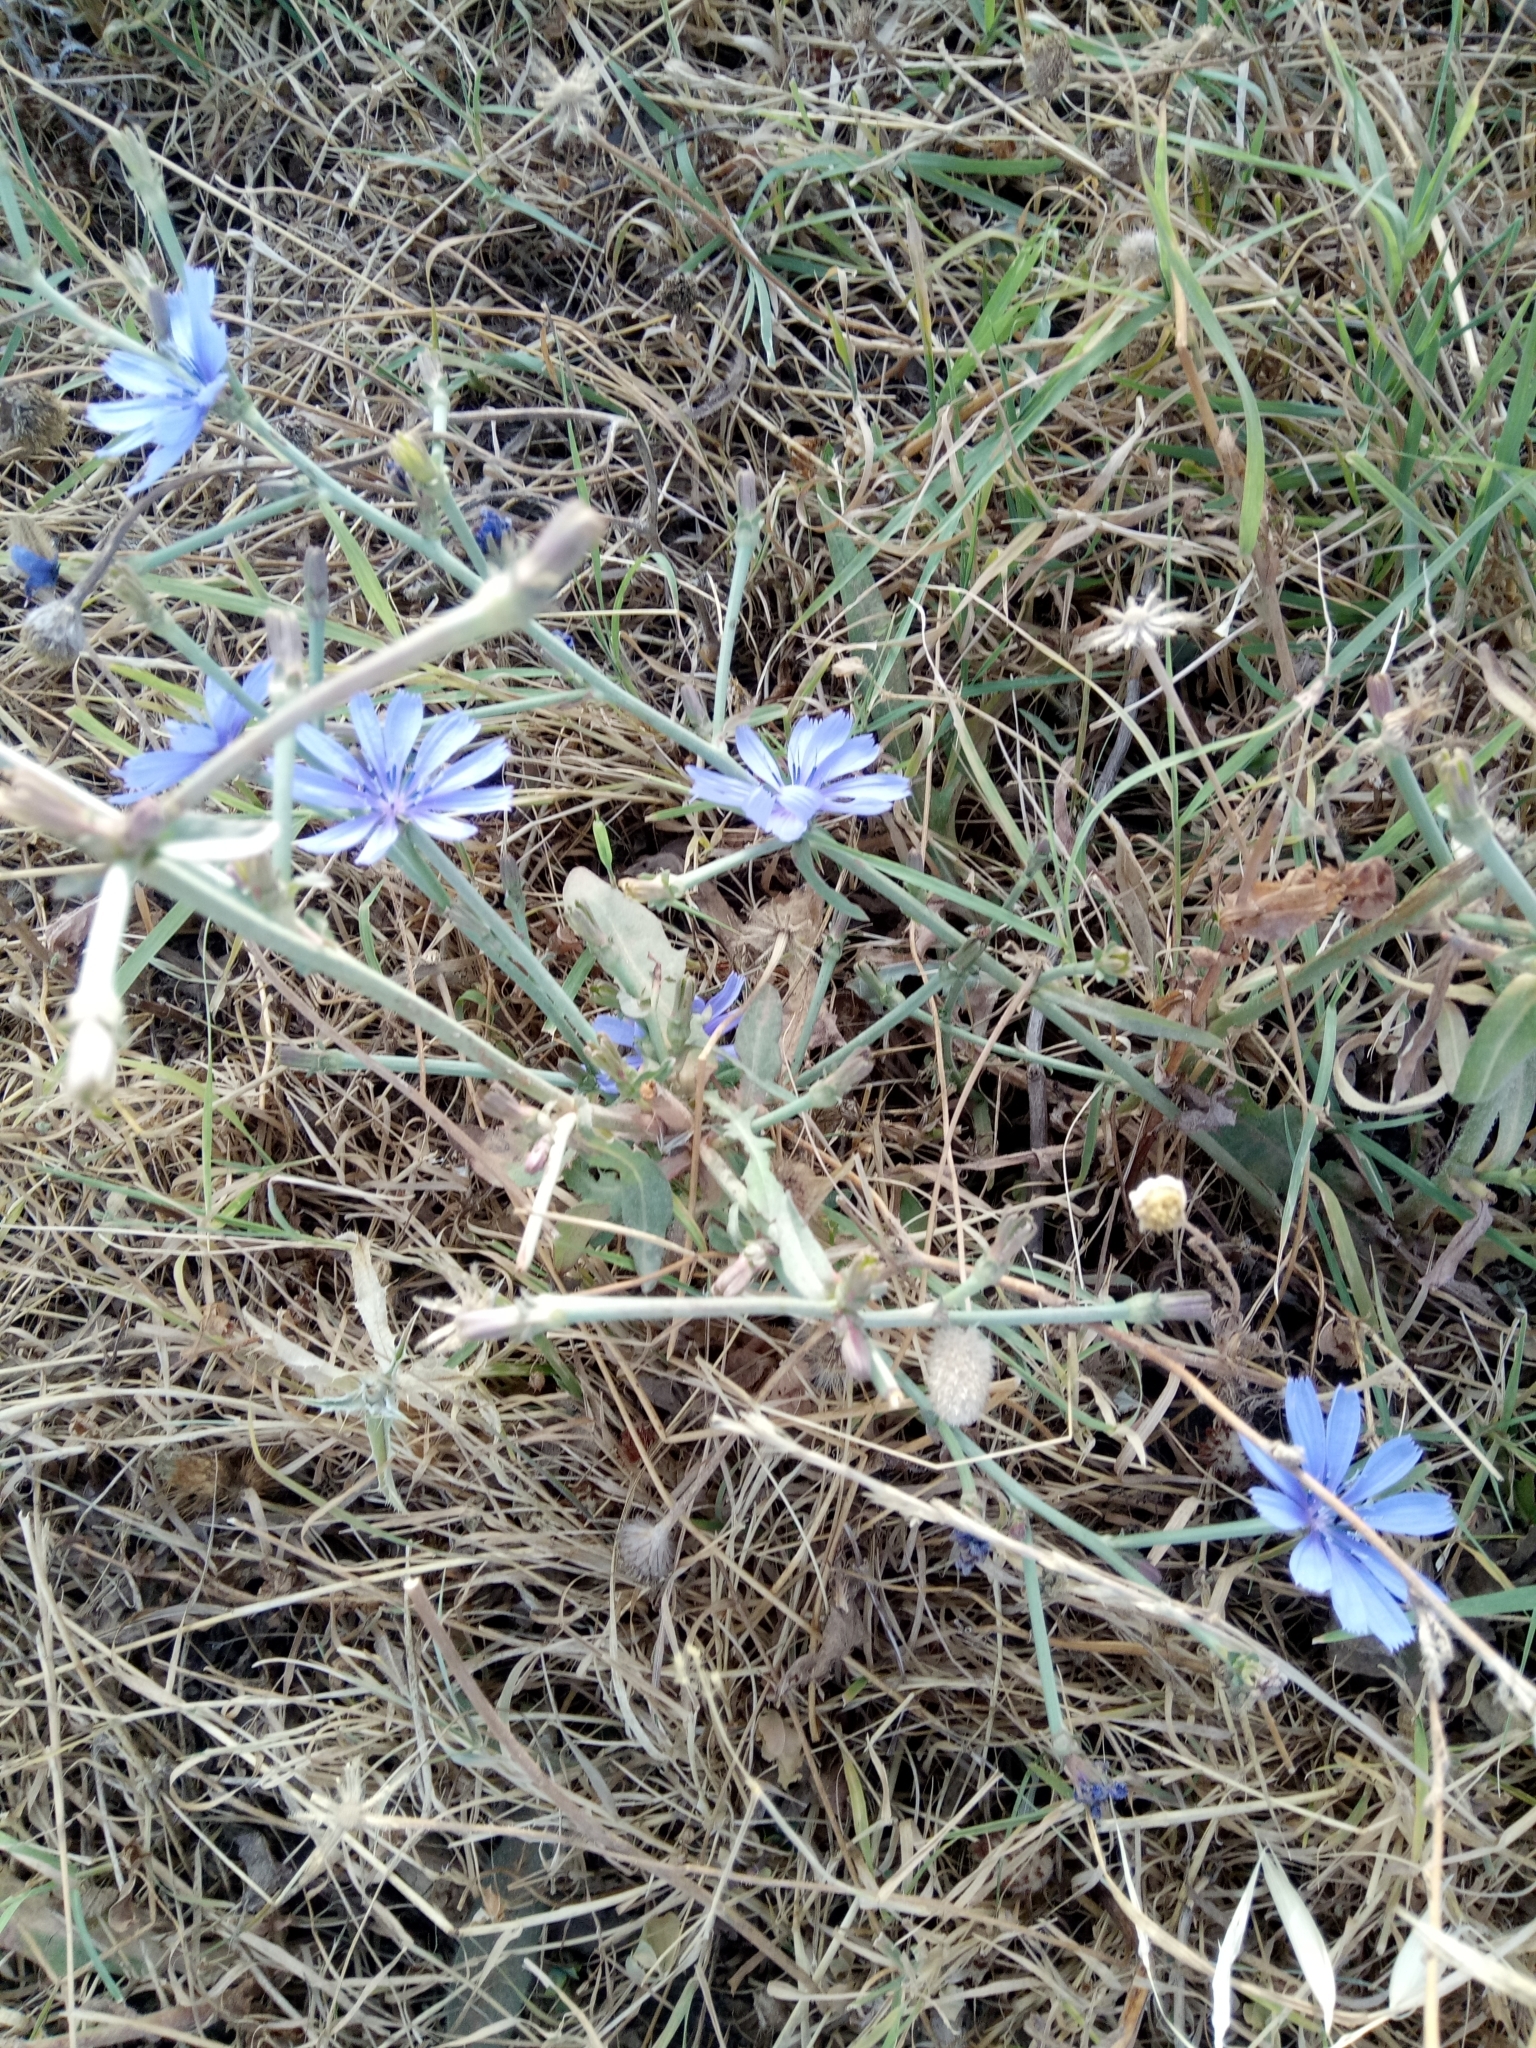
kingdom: Plantae
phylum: Tracheophyta
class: Magnoliopsida
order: Asterales
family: Asteraceae
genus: Cichorium
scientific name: Cichorium intybus
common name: Chicory
